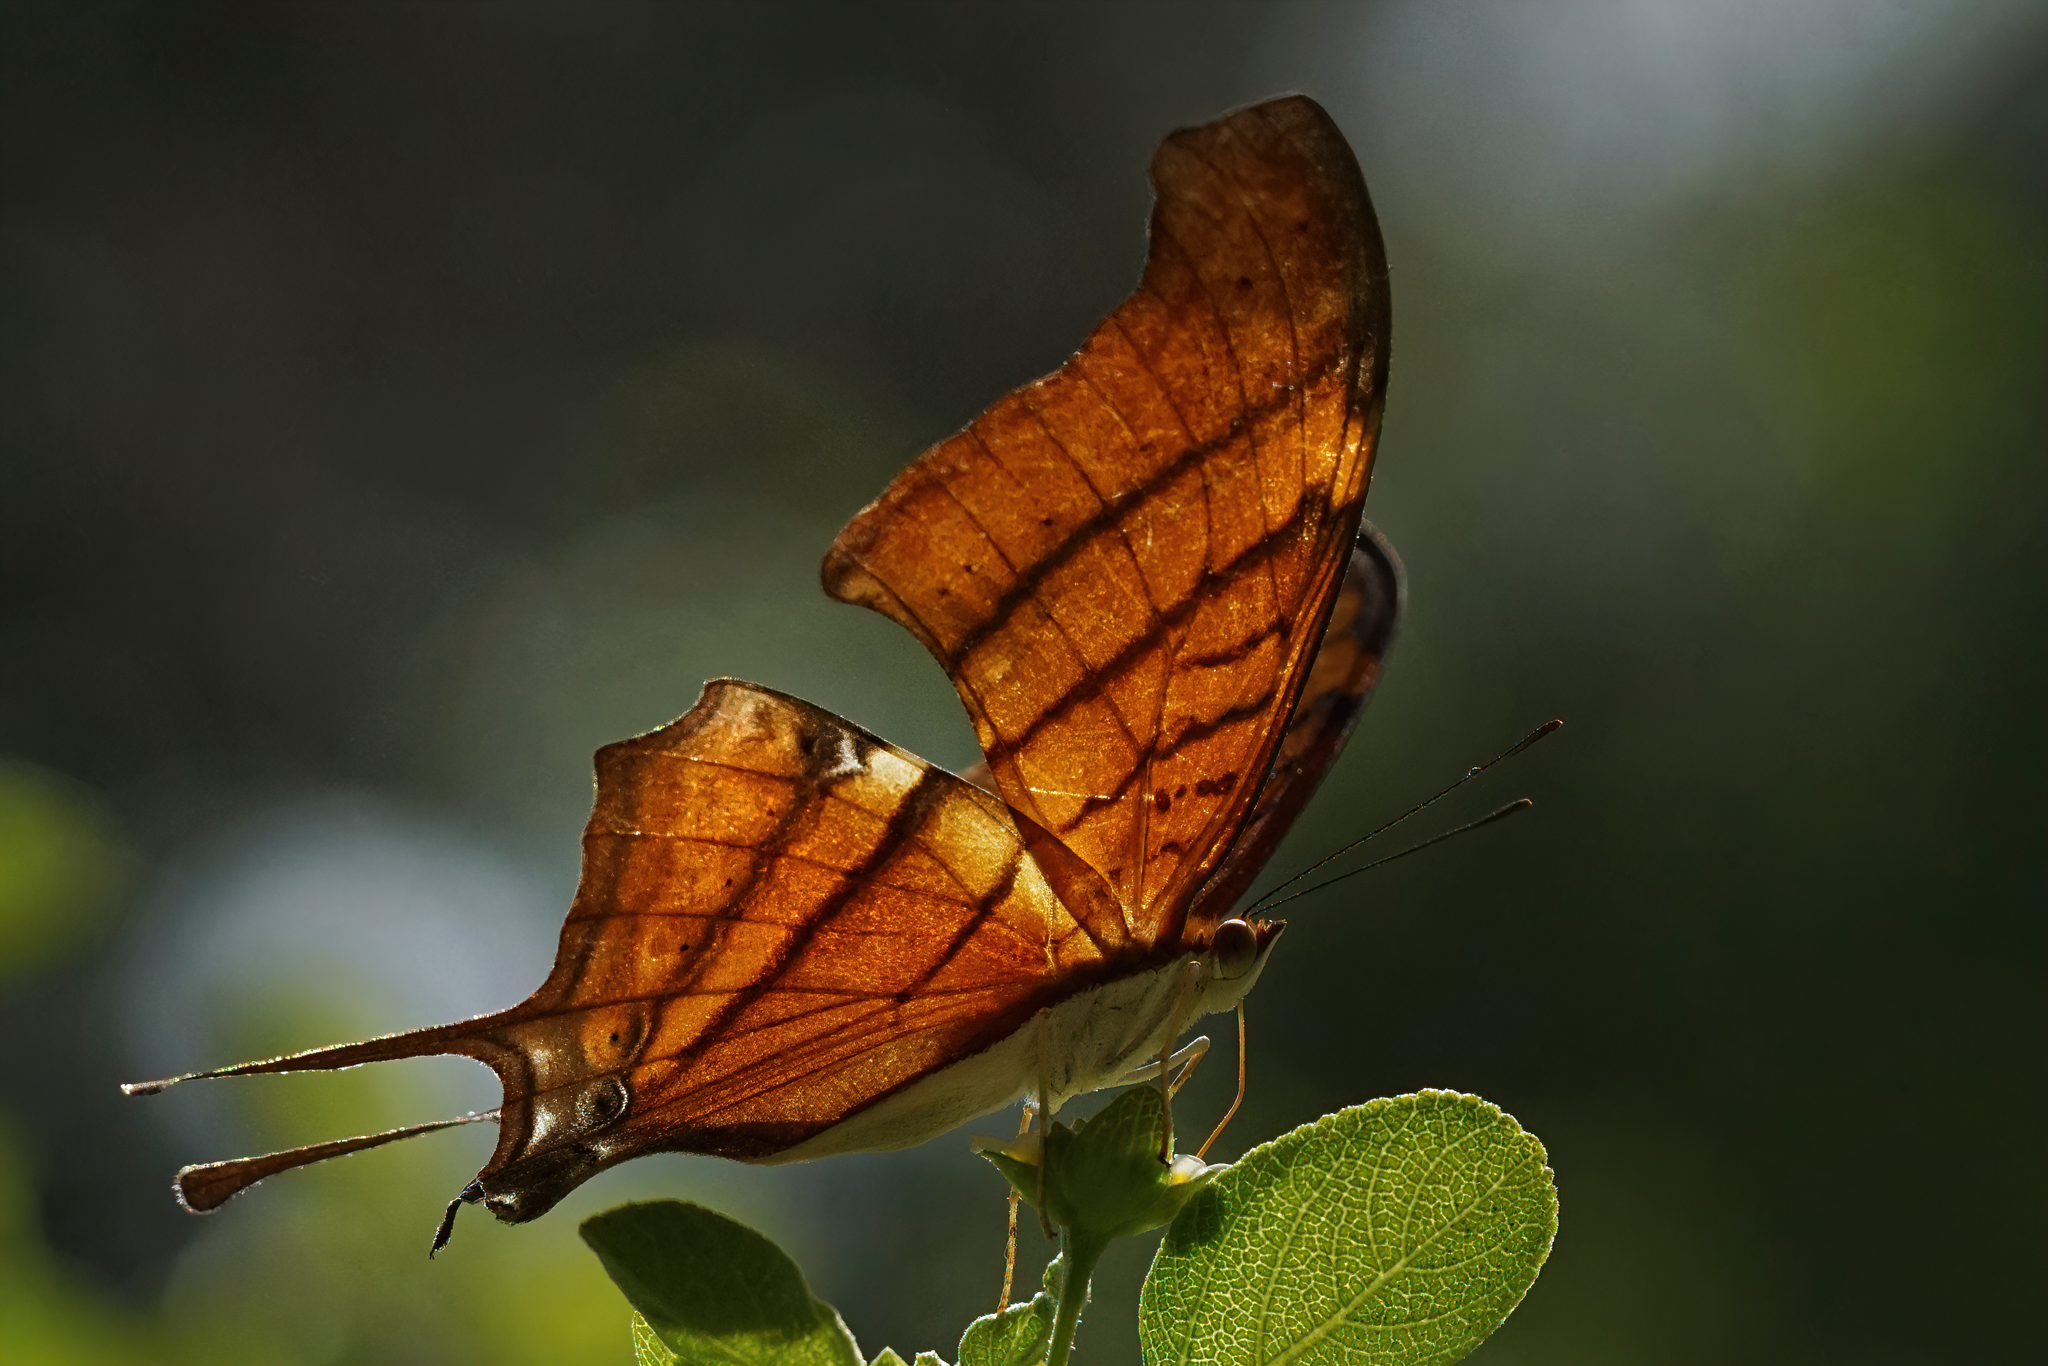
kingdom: Animalia
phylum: Arthropoda
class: Insecta
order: Lepidoptera
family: Nymphalidae
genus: Marpesia
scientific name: Marpesia petreus
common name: Red dagger wing
